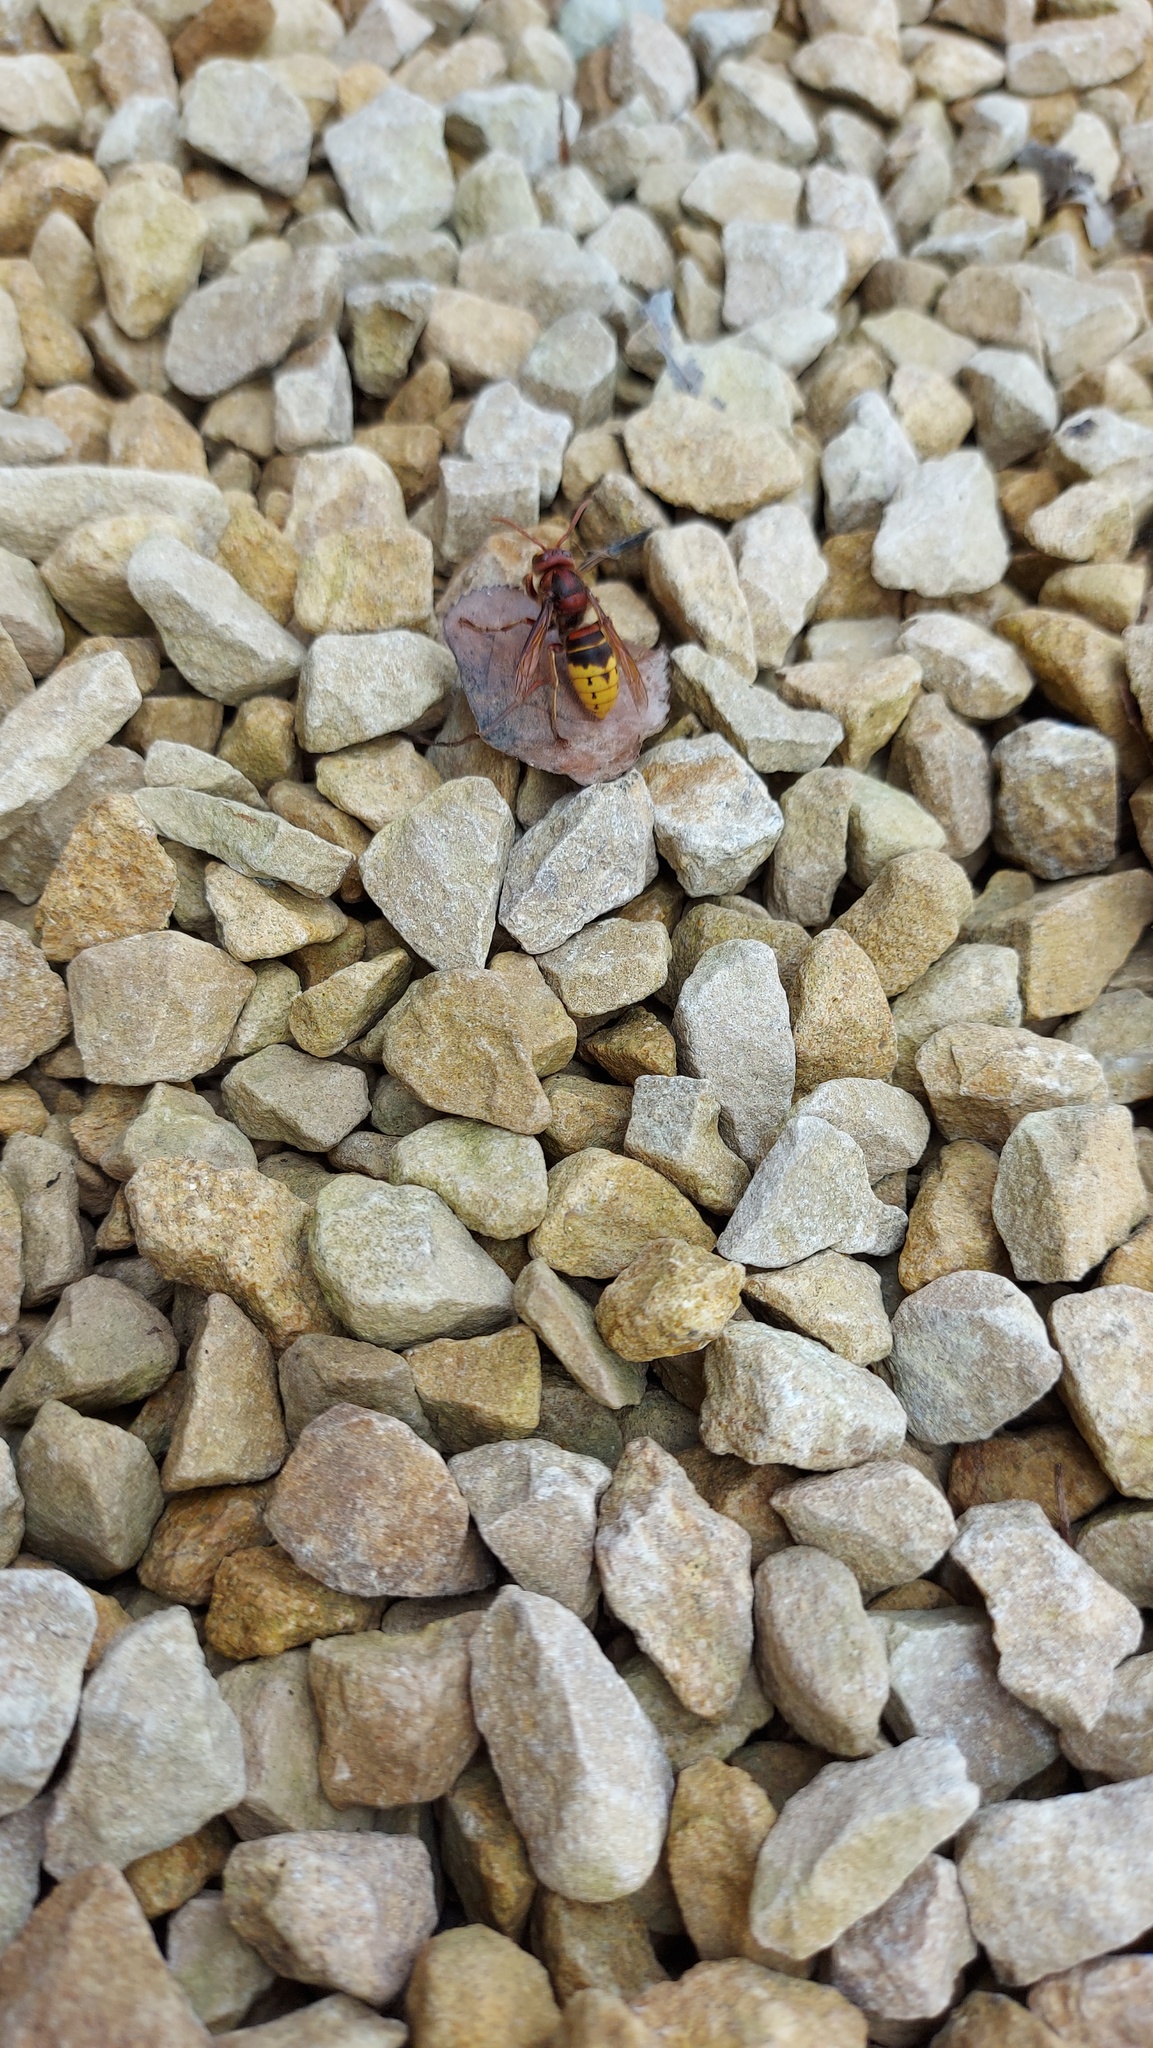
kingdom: Animalia
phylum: Arthropoda
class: Insecta
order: Hymenoptera
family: Vespidae
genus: Vespa
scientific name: Vespa crabro
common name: Hornet
